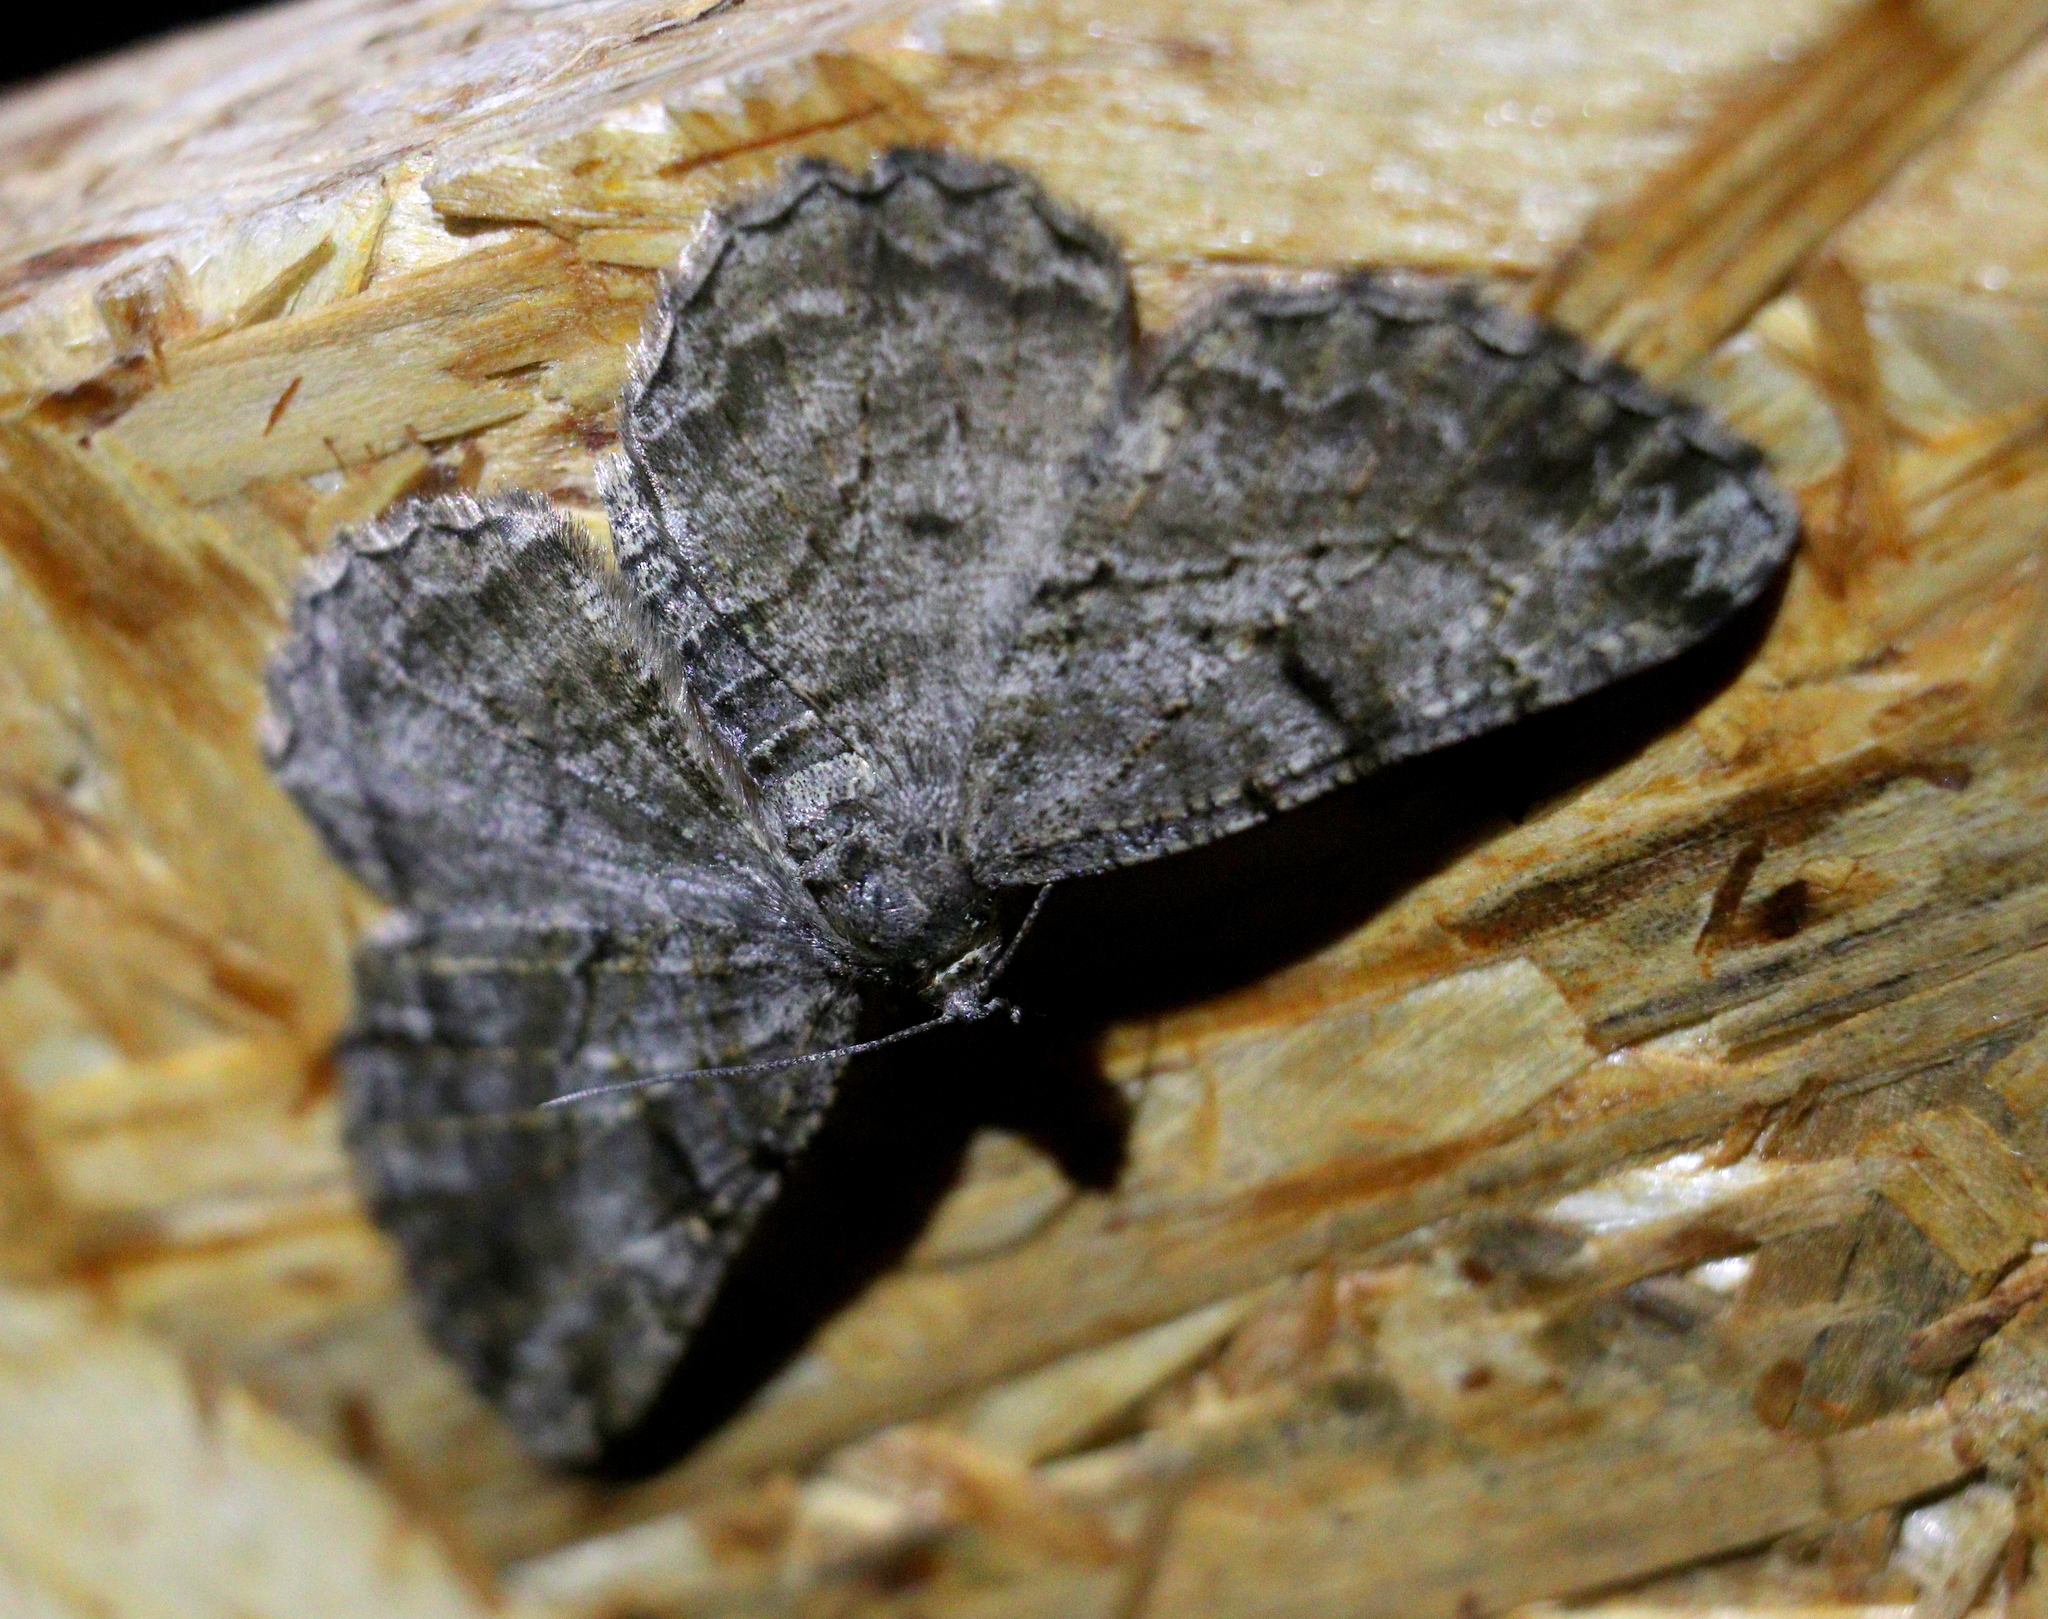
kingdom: Animalia
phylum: Arthropoda
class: Insecta
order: Lepidoptera
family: Geometridae
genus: Peribatodes
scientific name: Peribatodes rhomboidaria
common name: Willow beauty
